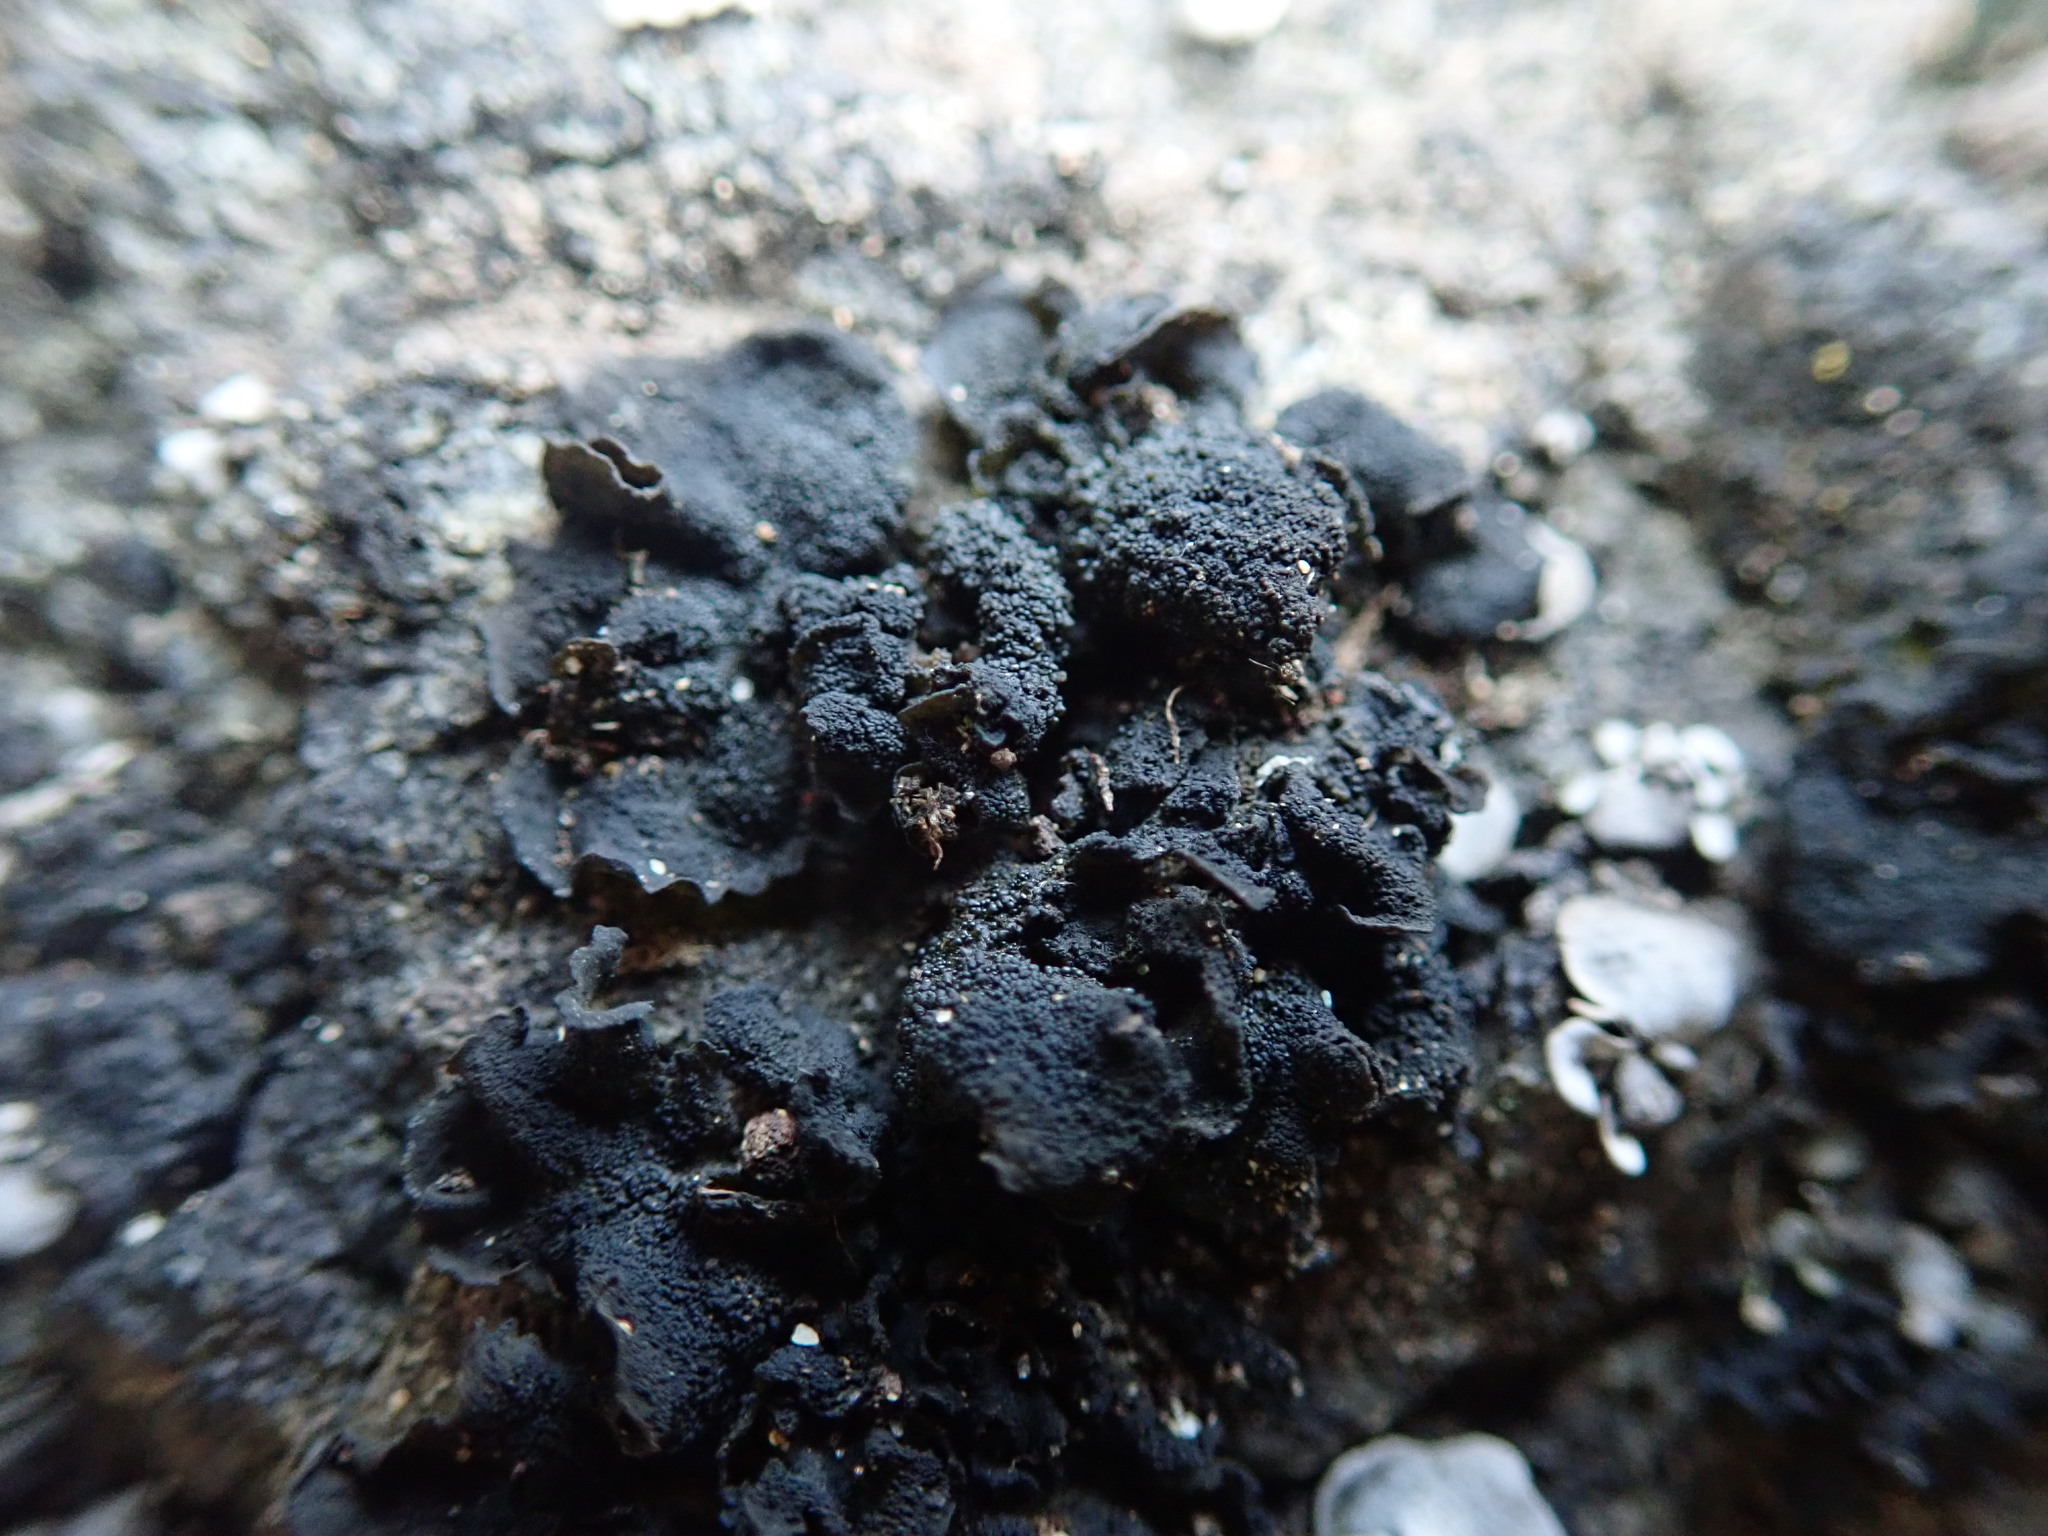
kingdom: Fungi
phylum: Ascomycota
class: Lecanoromycetes
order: Peltigerales
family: Collemataceae
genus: Lathagrium
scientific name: Lathagrium fuscovirens
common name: Crumpled rock tarpaper lichen
